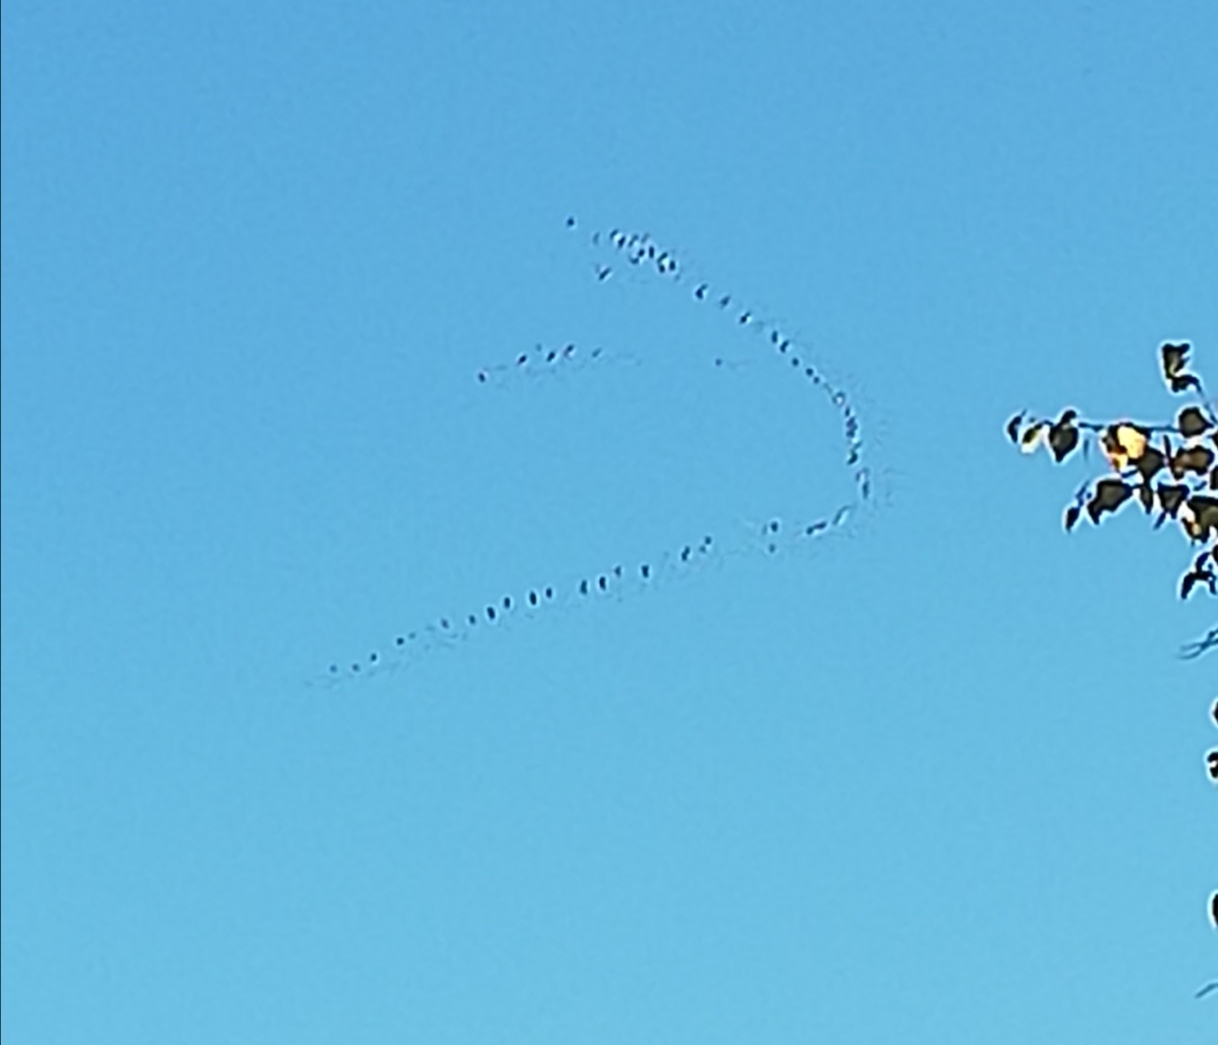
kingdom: Animalia
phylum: Chordata
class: Aves
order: Gruiformes
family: Gruidae
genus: Grus
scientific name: Grus grus
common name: Common crane
